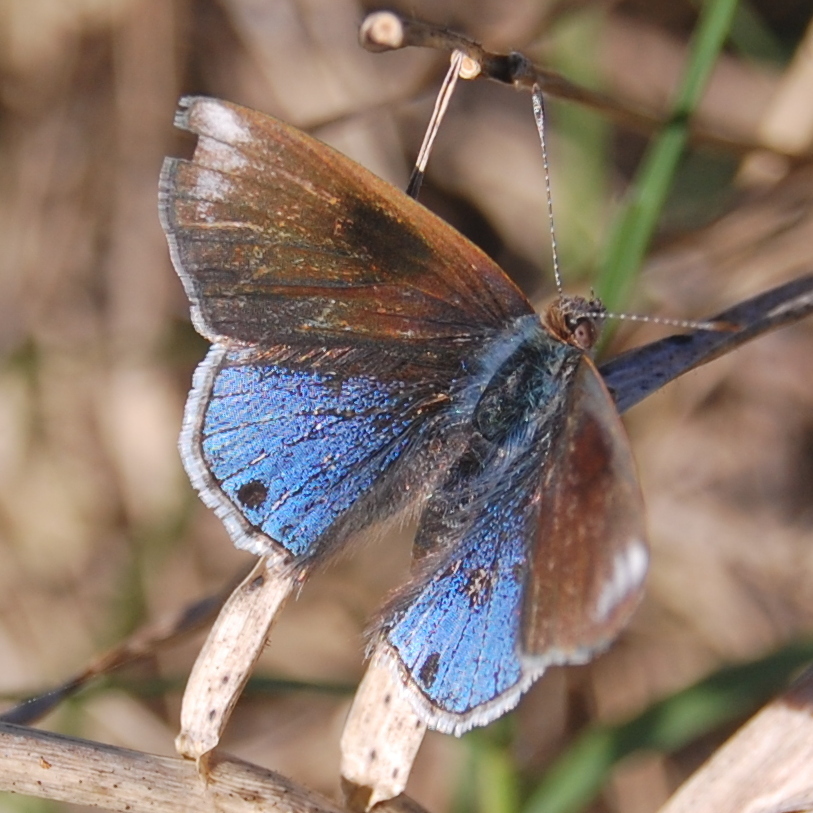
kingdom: Animalia
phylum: Arthropoda
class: Insecta
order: Lepidoptera
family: Lycaenidae
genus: Strymon
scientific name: Strymon bazochii
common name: Lantana scrub-hairstreak
